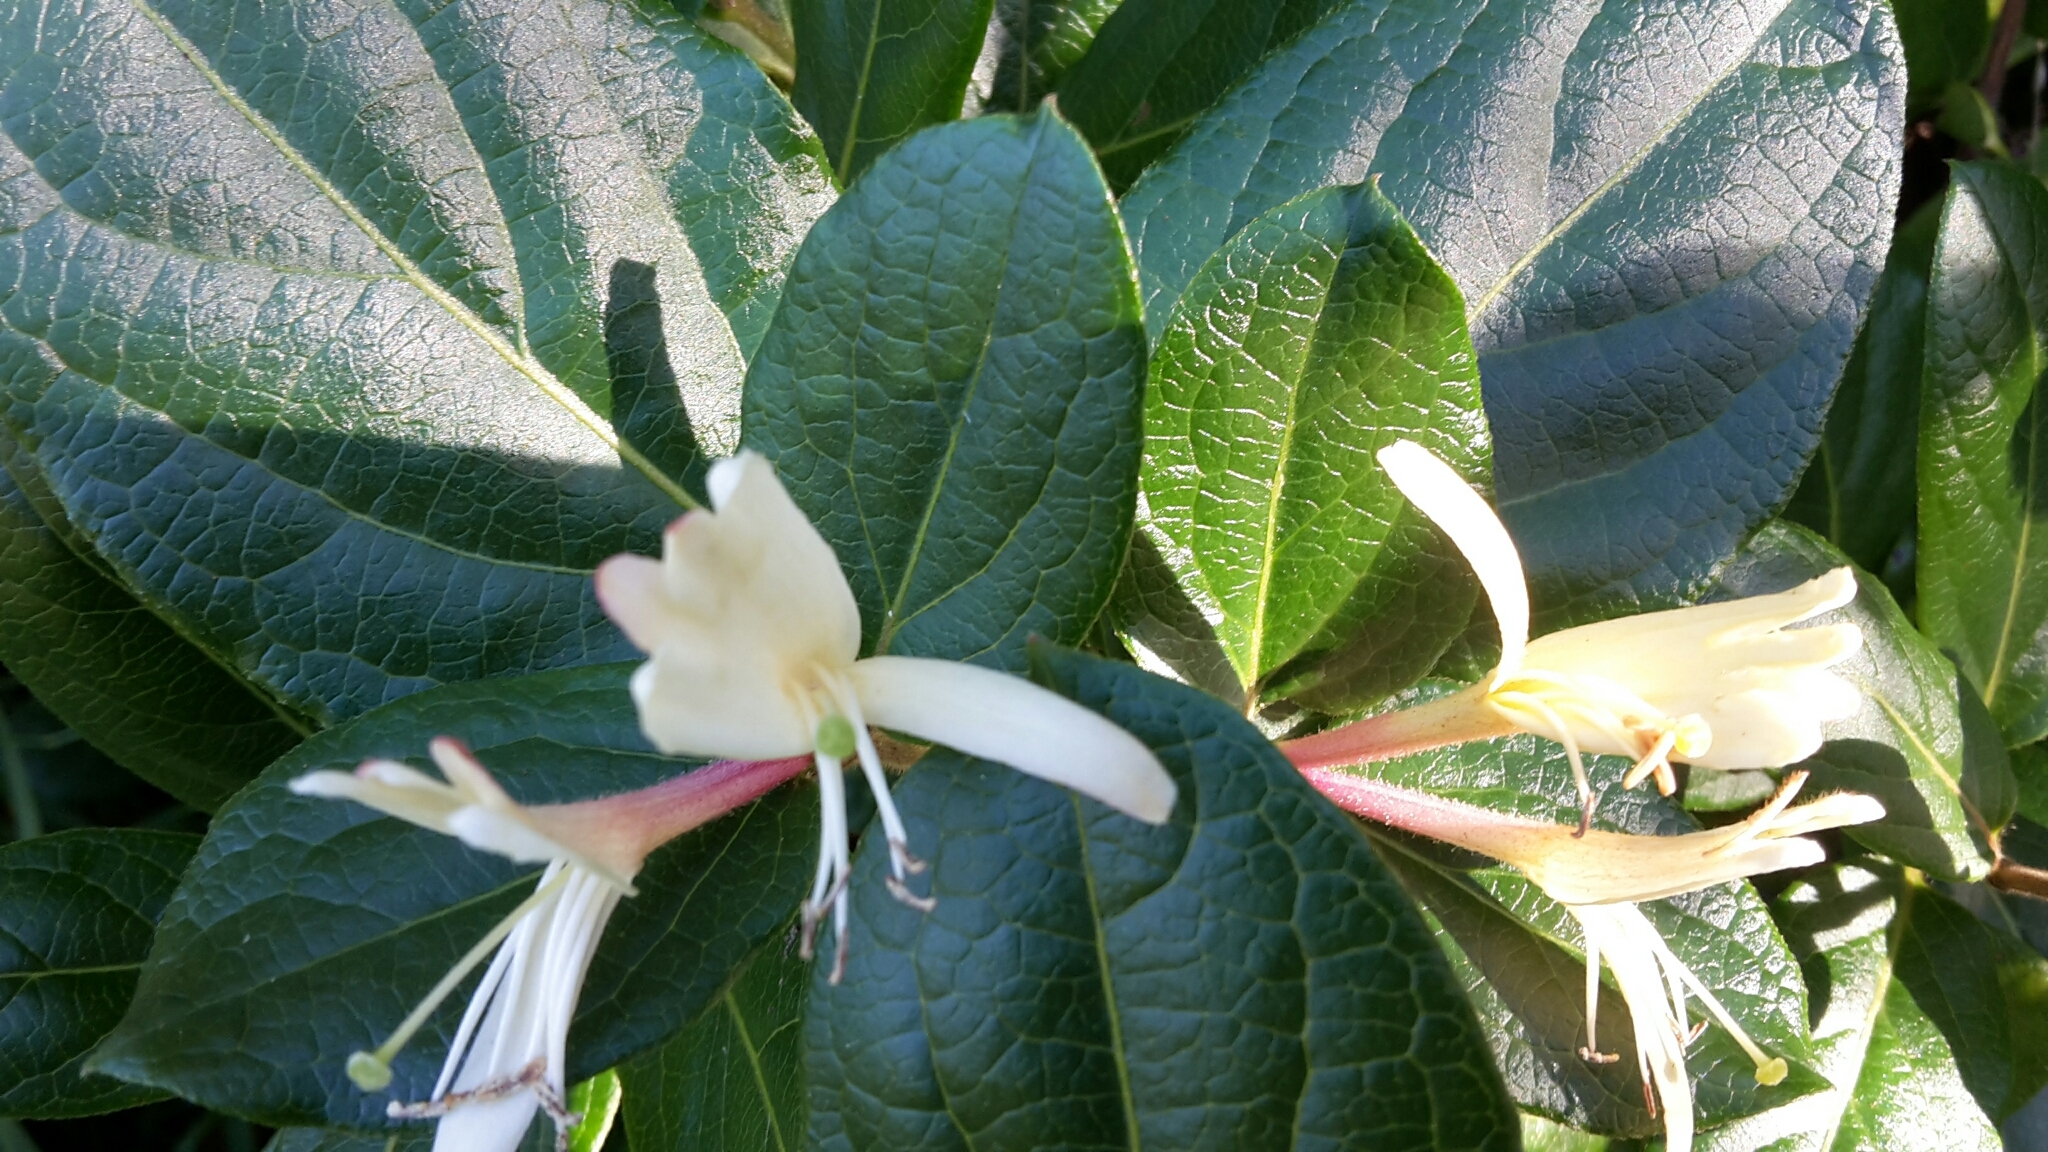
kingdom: Plantae
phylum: Tracheophyta
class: Magnoliopsida
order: Dipsacales
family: Caprifoliaceae
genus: Lonicera
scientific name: Lonicera japonica
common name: Japanese honeysuckle
